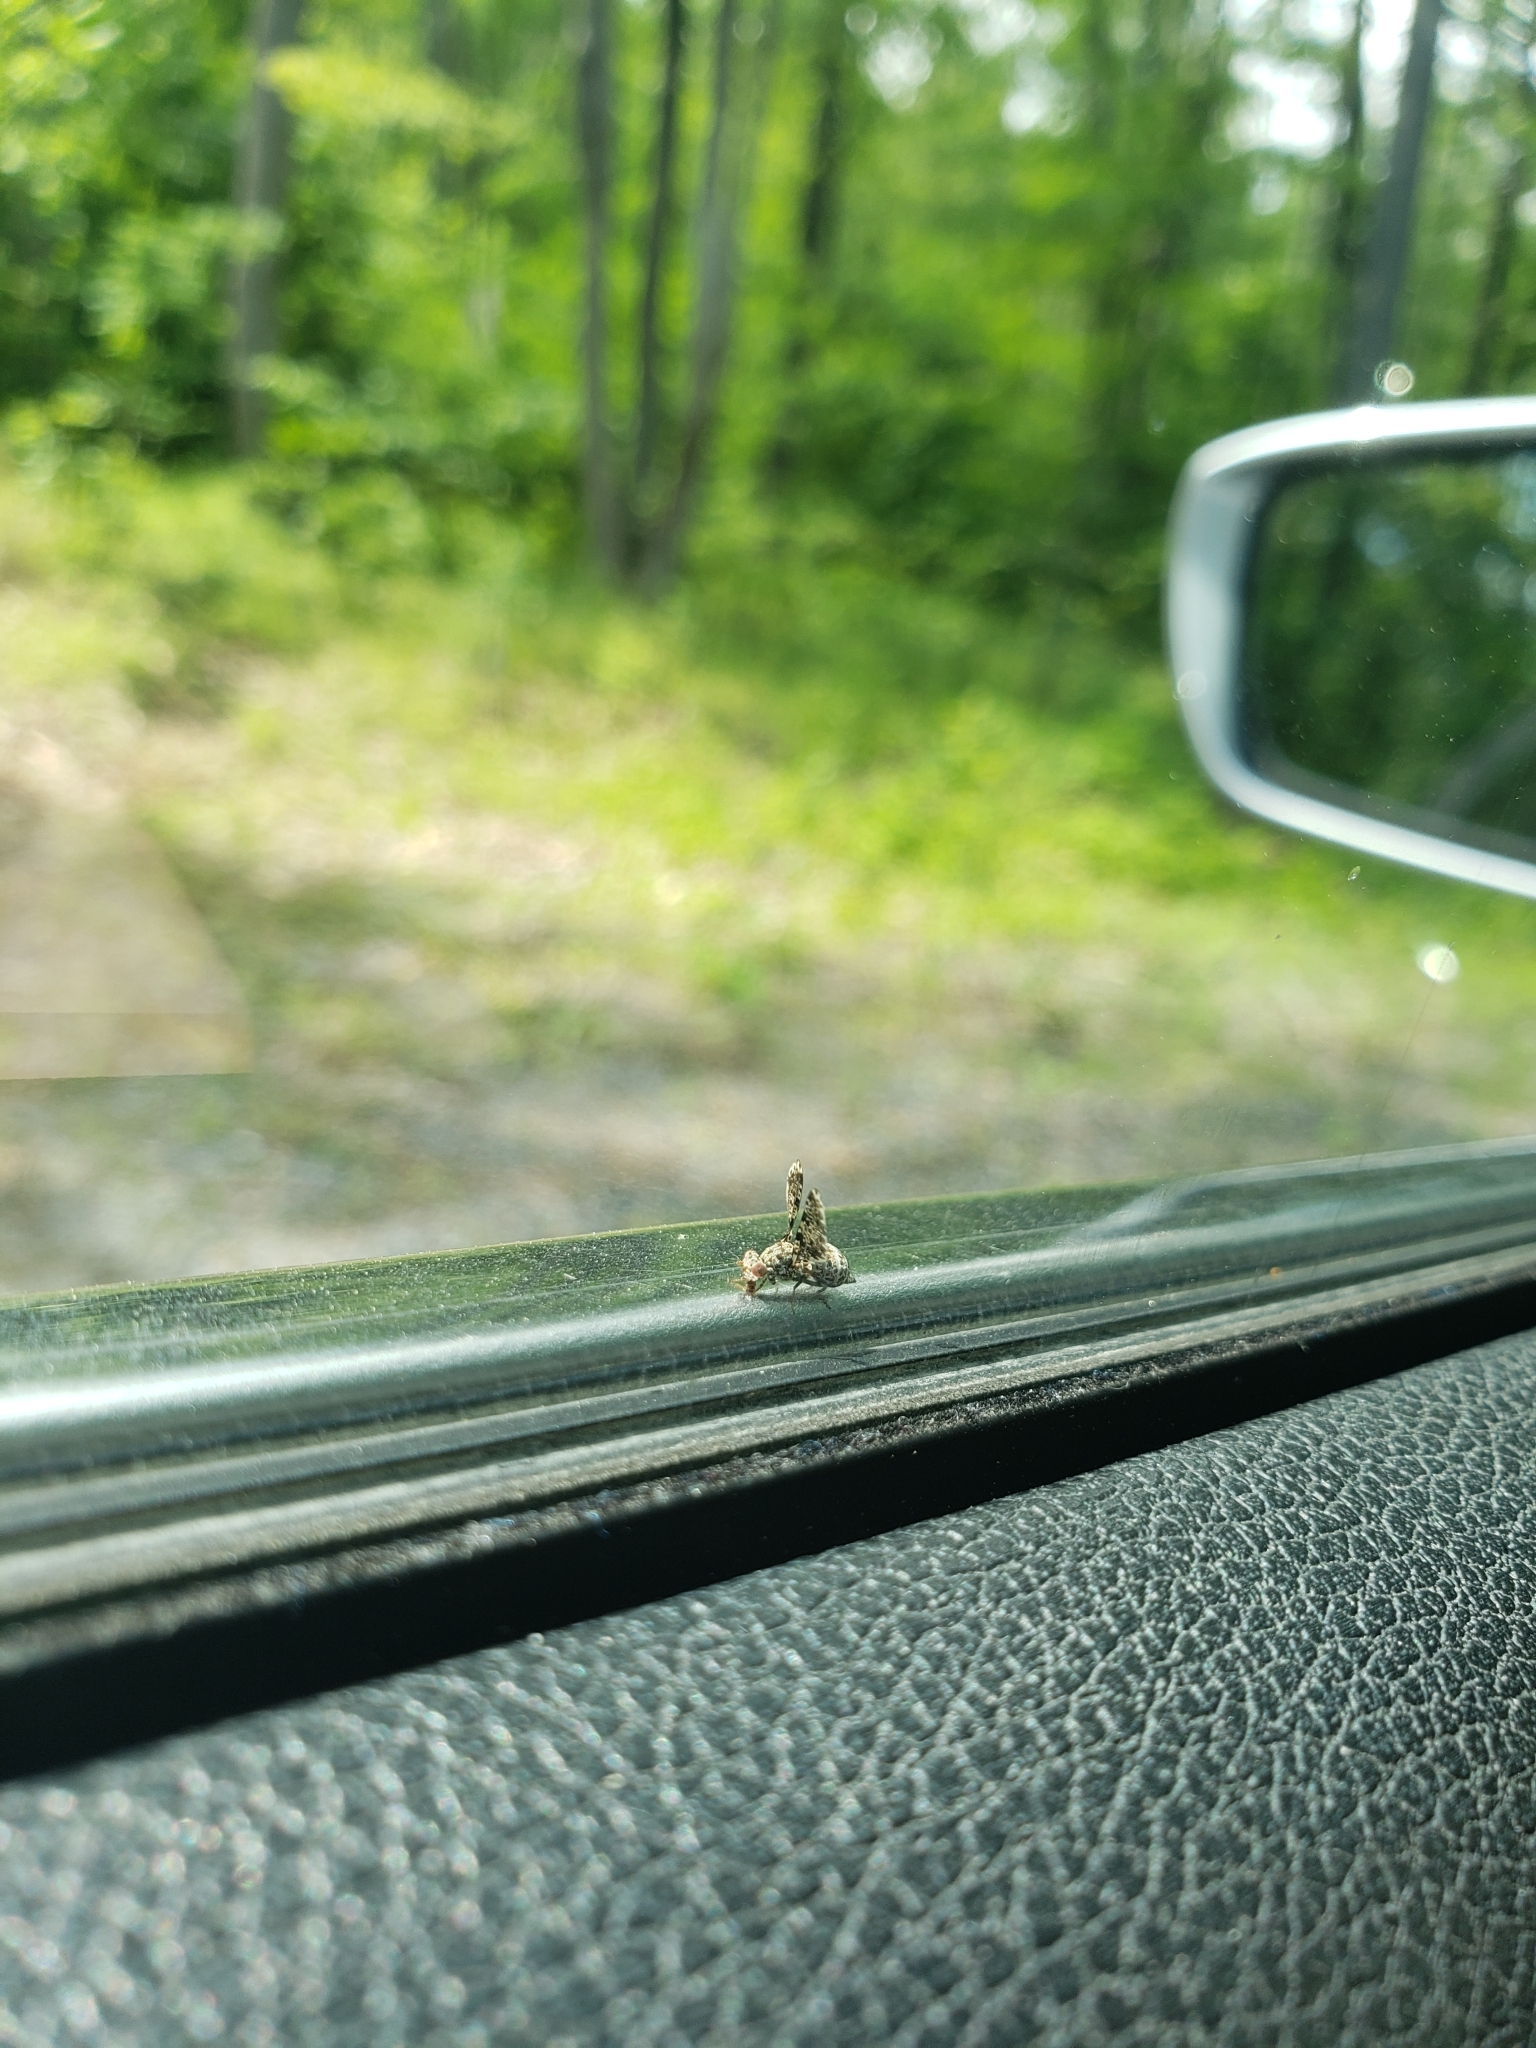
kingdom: Animalia
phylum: Arthropoda
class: Insecta
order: Diptera
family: Ulidiidae
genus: Callopistromyia
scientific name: Callopistromyia annulipes
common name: Peacock fly
